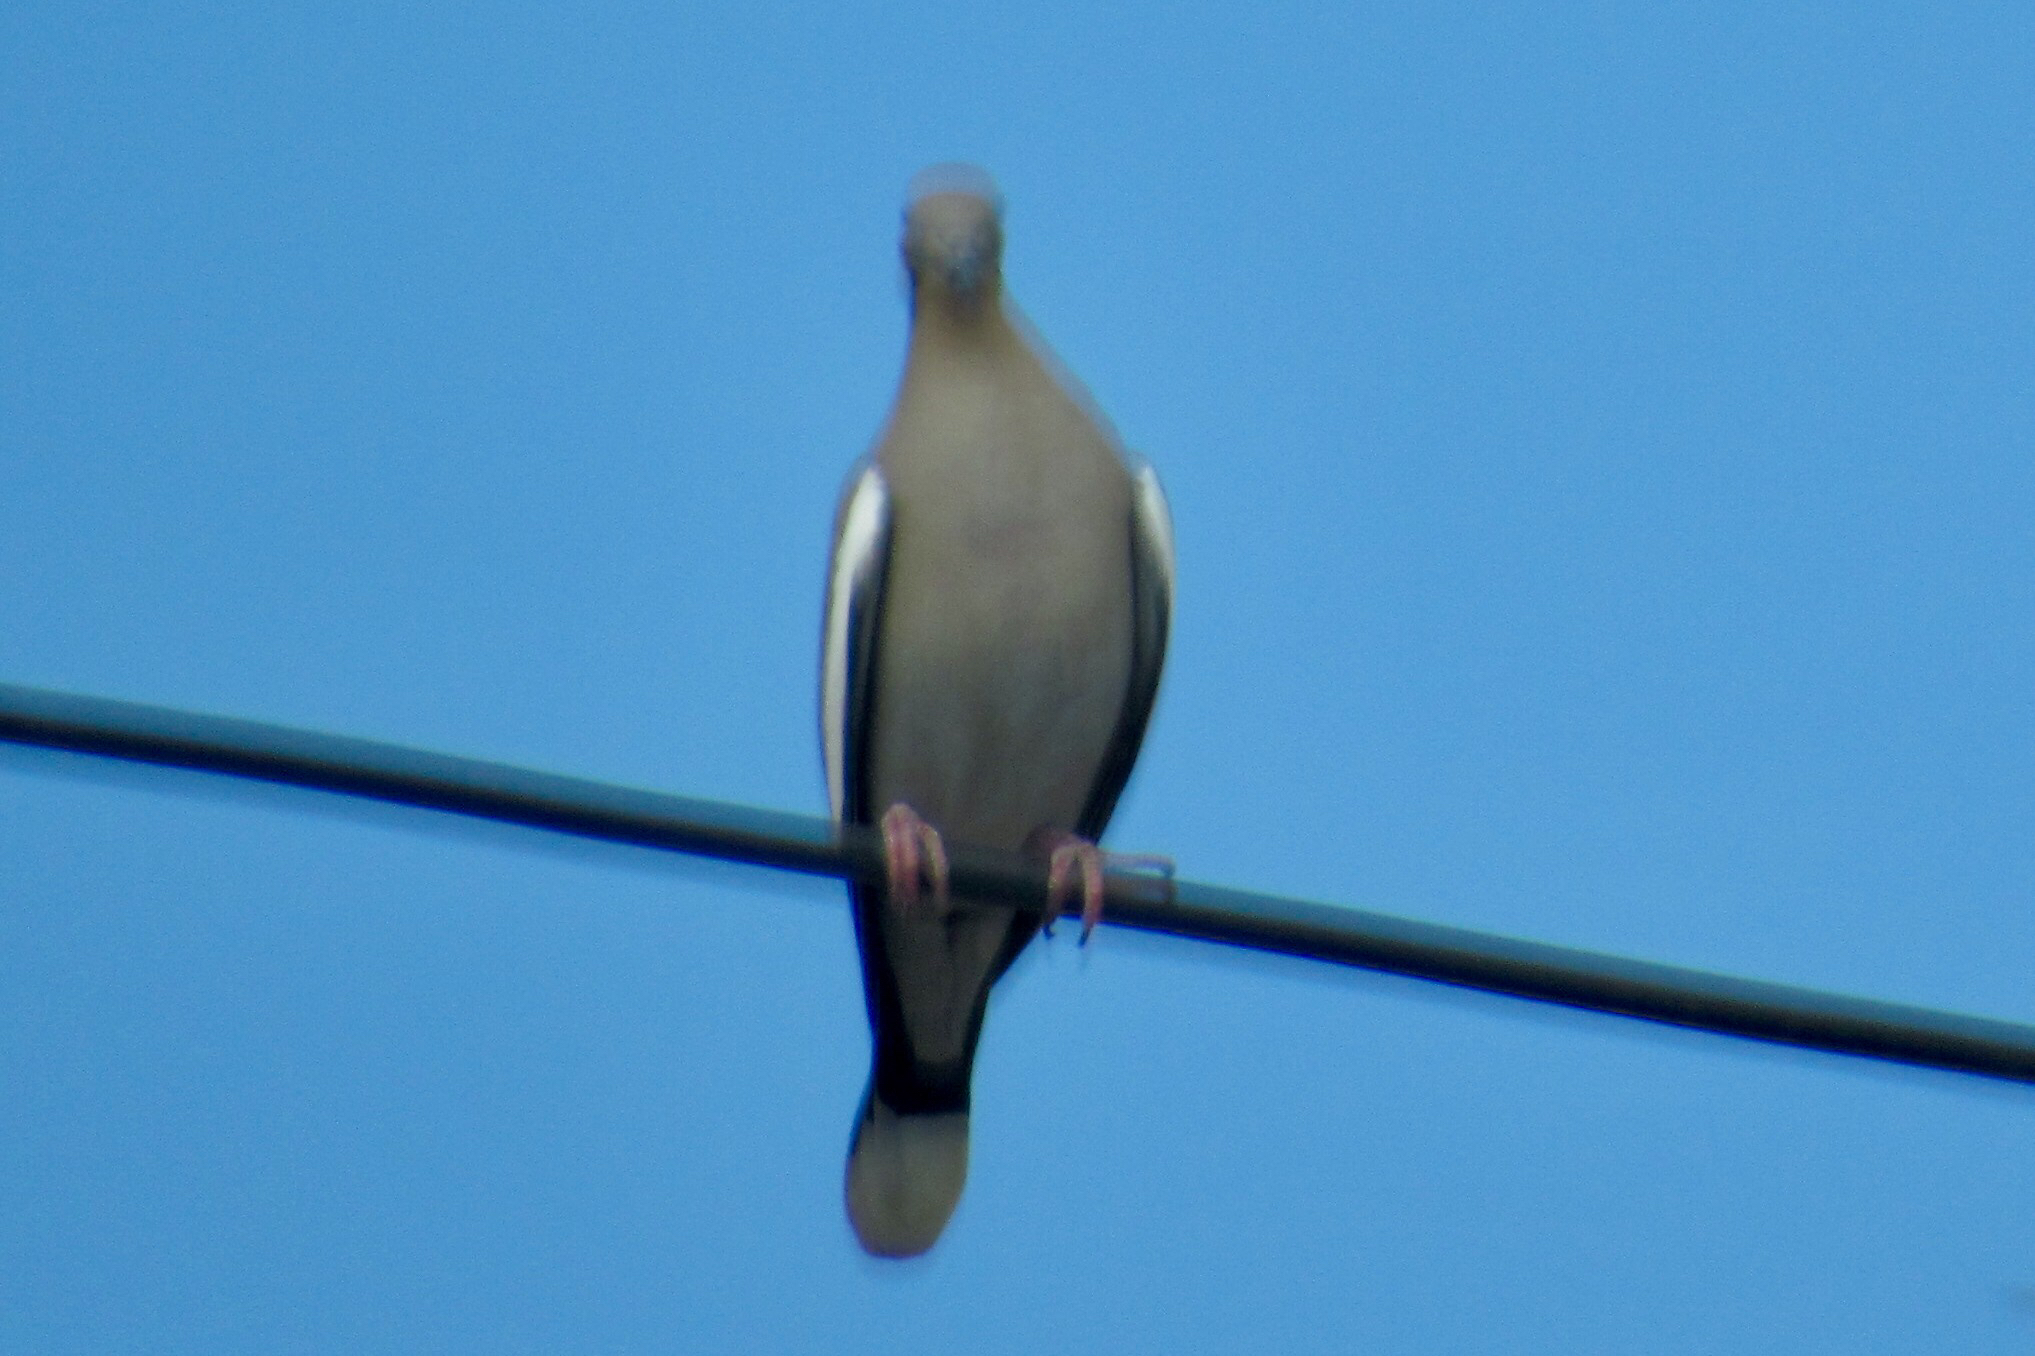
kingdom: Animalia
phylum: Chordata
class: Aves
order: Columbiformes
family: Columbidae
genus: Zenaida
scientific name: Zenaida asiatica
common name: White-winged dove
